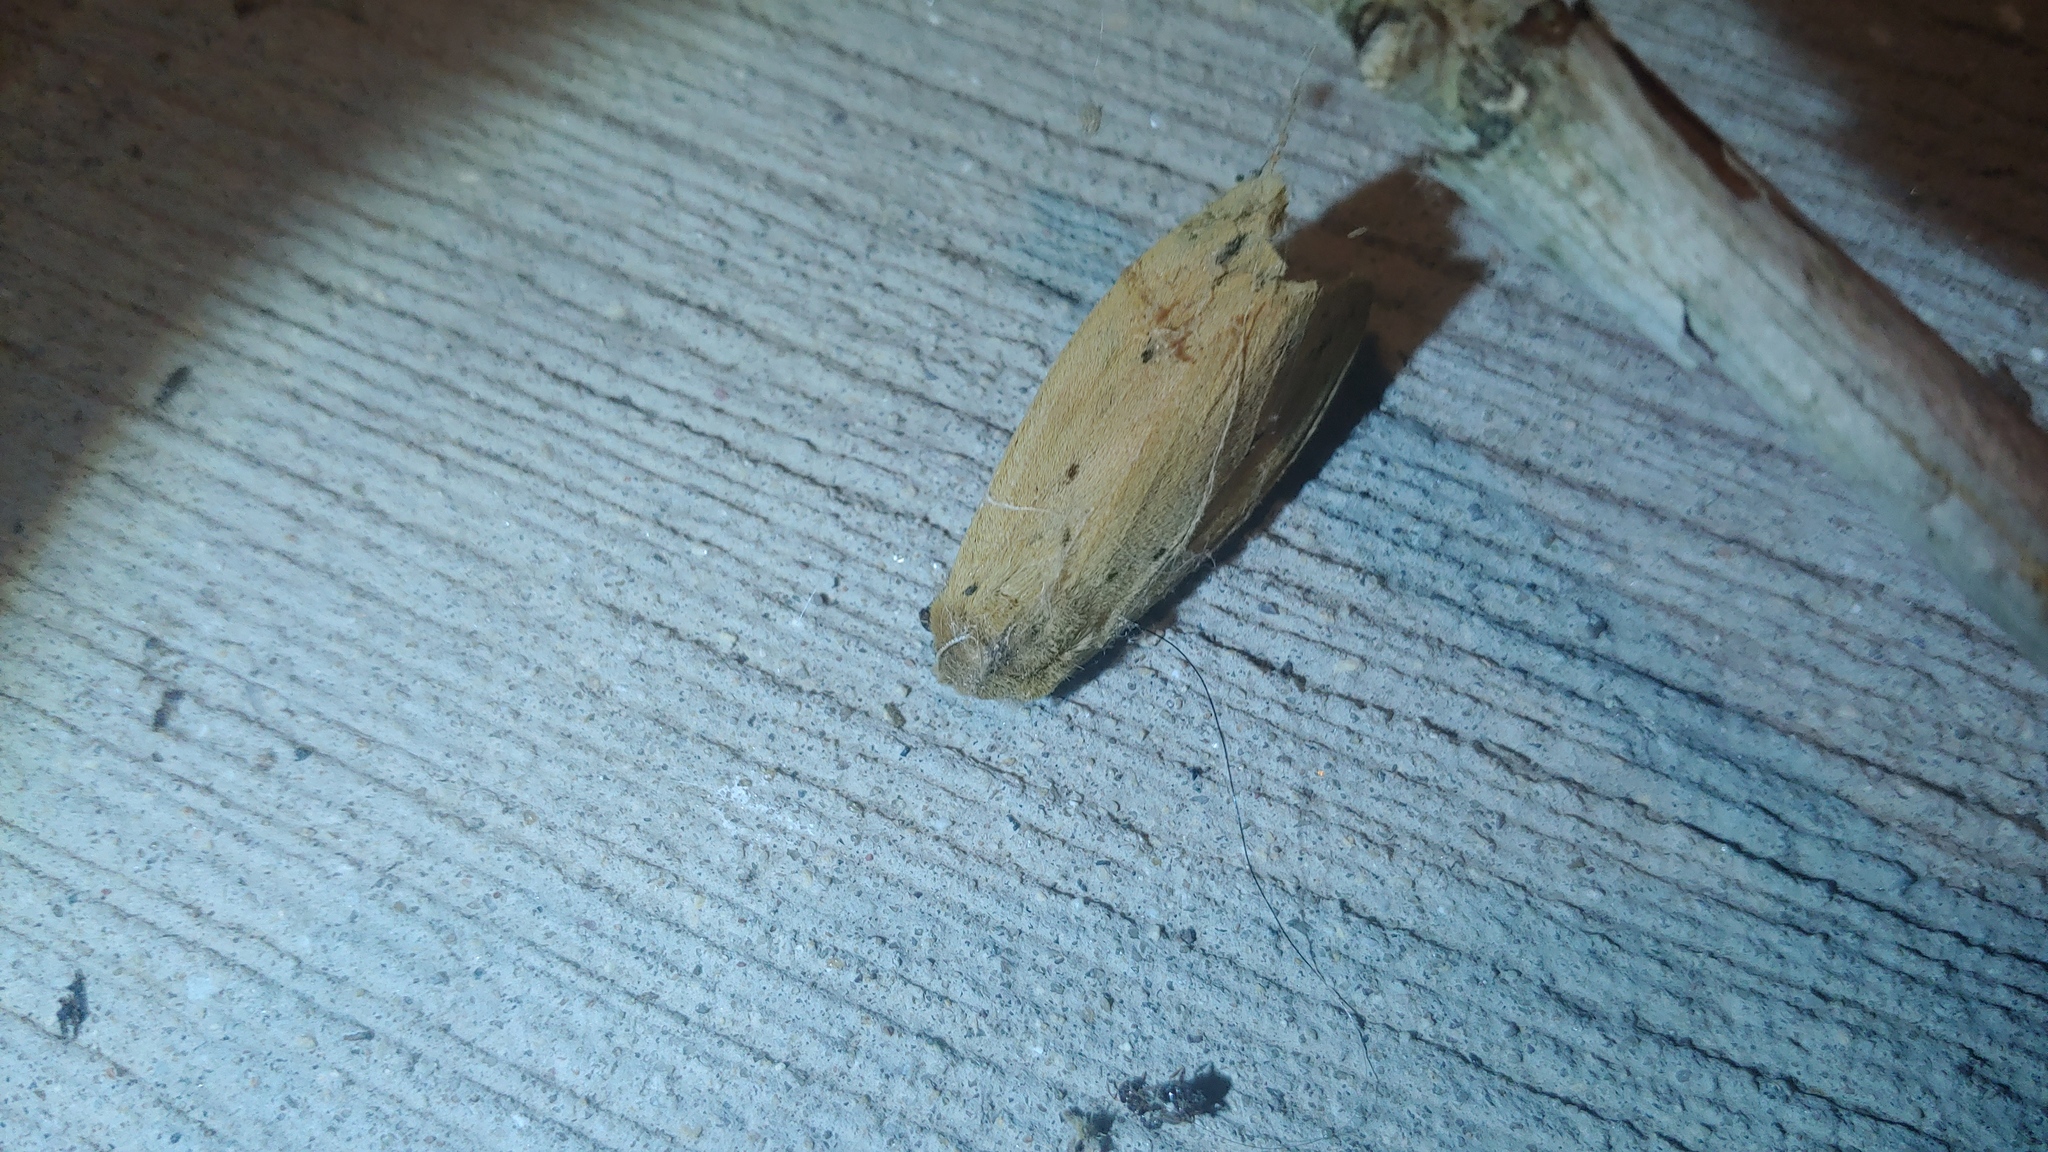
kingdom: Animalia
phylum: Arthropoda
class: Insecta
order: Lepidoptera
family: Erebidae
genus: Pyrrharctia
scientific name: Pyrrharctia isabella
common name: Isabella tiger moth
